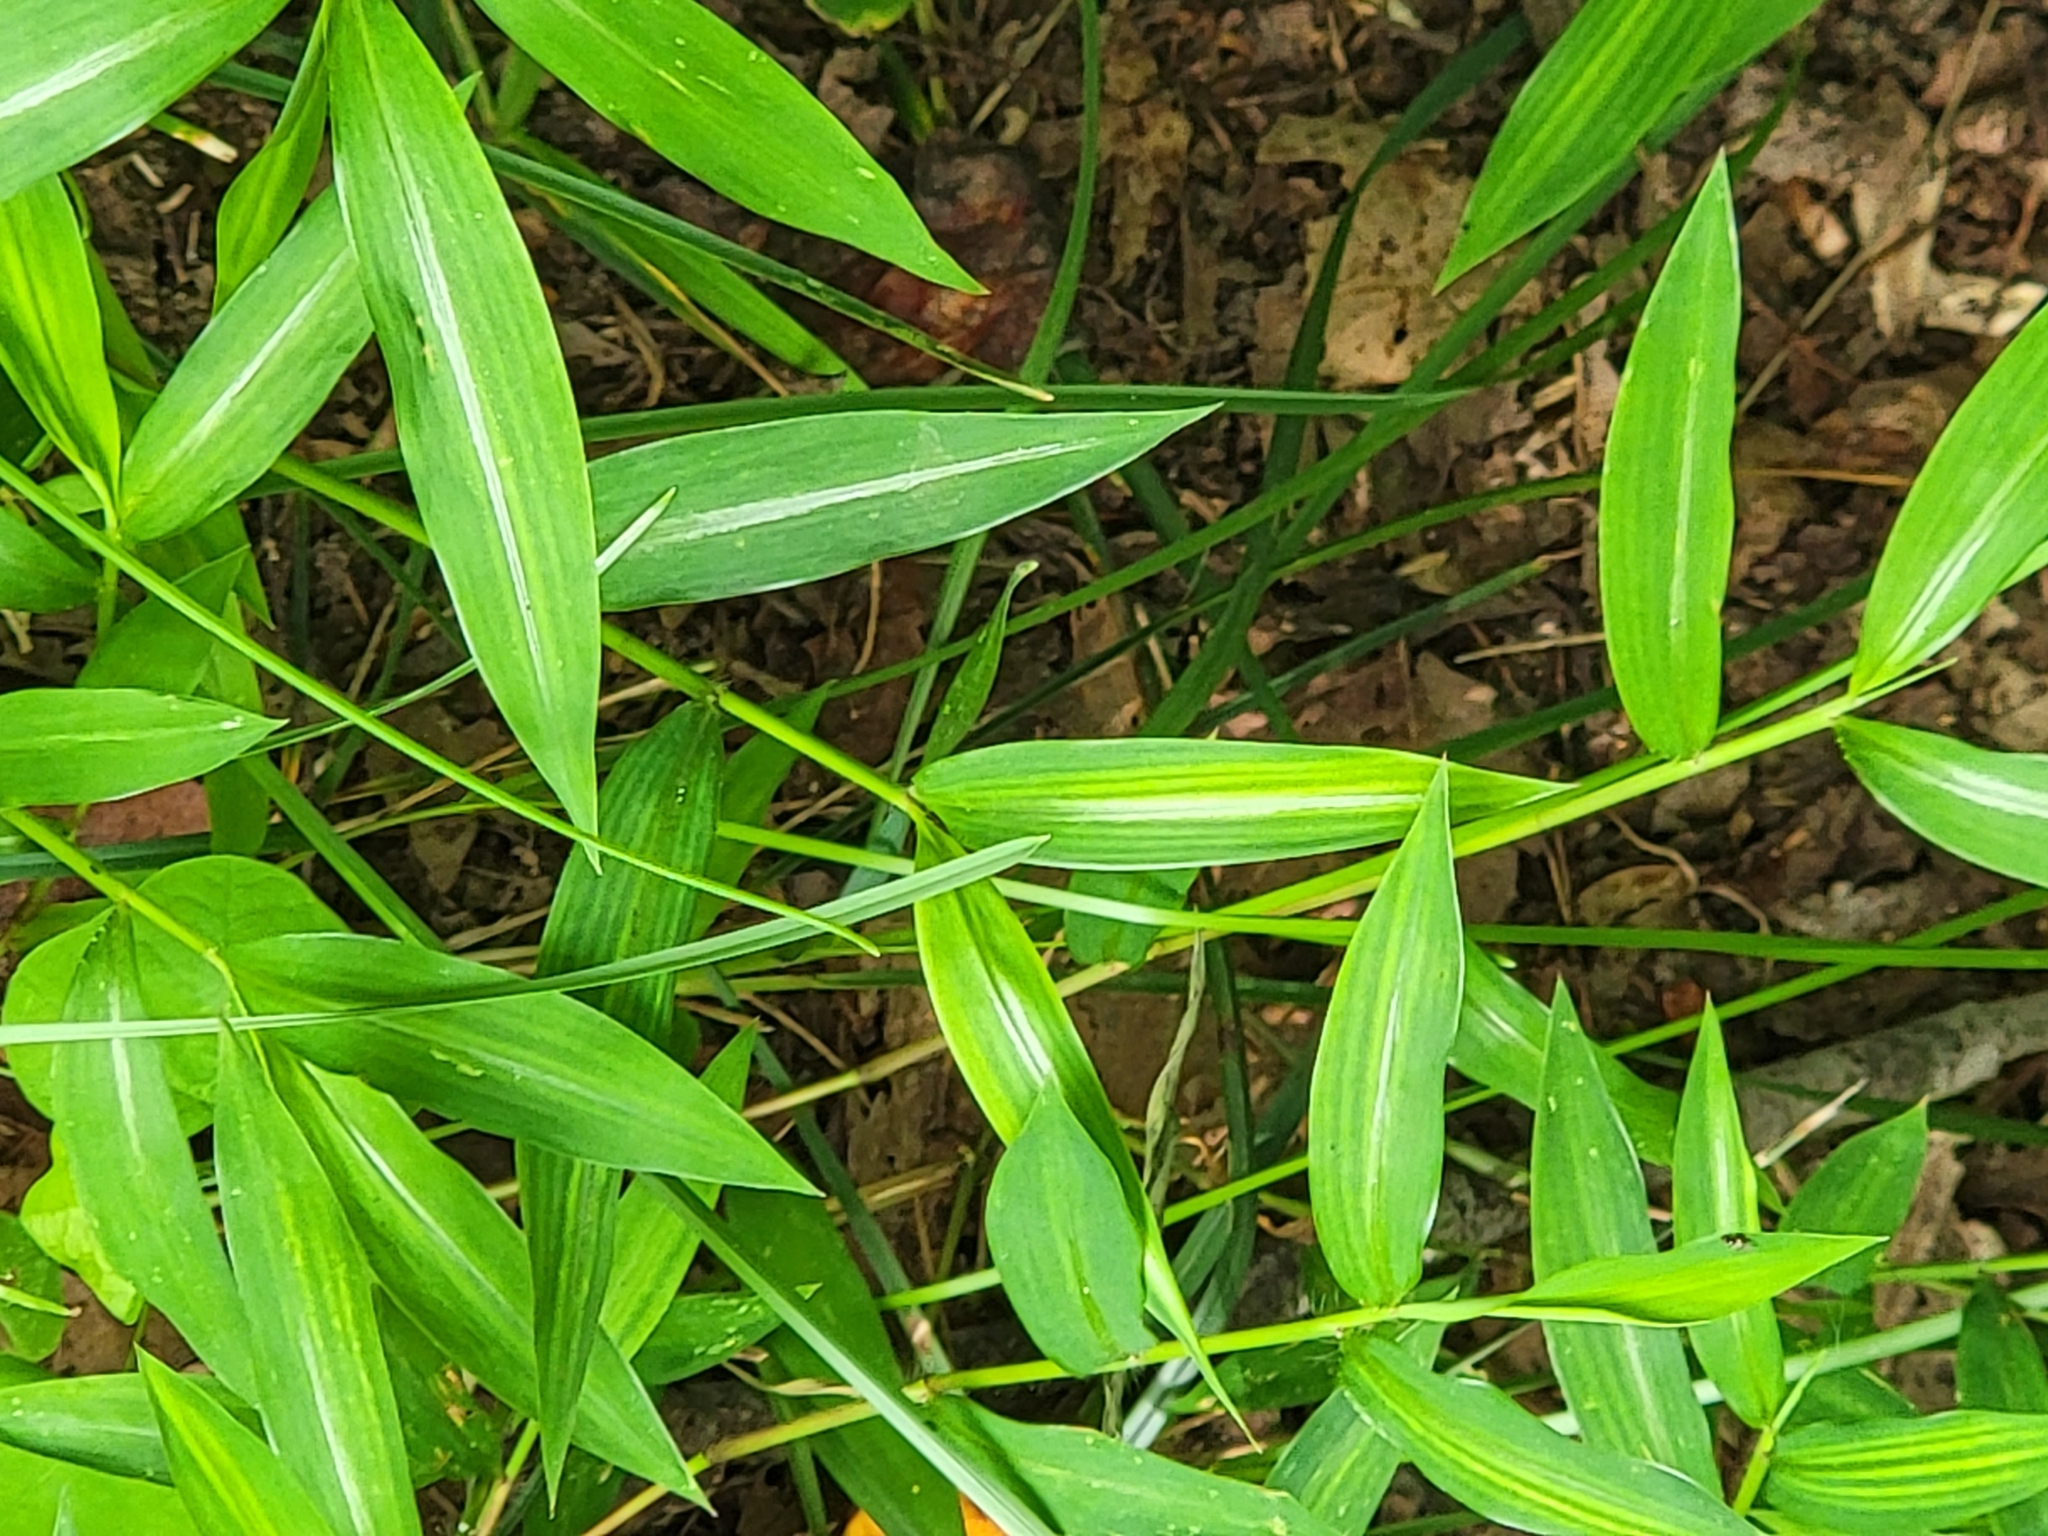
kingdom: Plantae
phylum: Tracheophyta
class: Liliopsida
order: Poales
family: Poaceae
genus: Microstegium
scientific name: Microstegium vimineum
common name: Japanese stiltgrass
